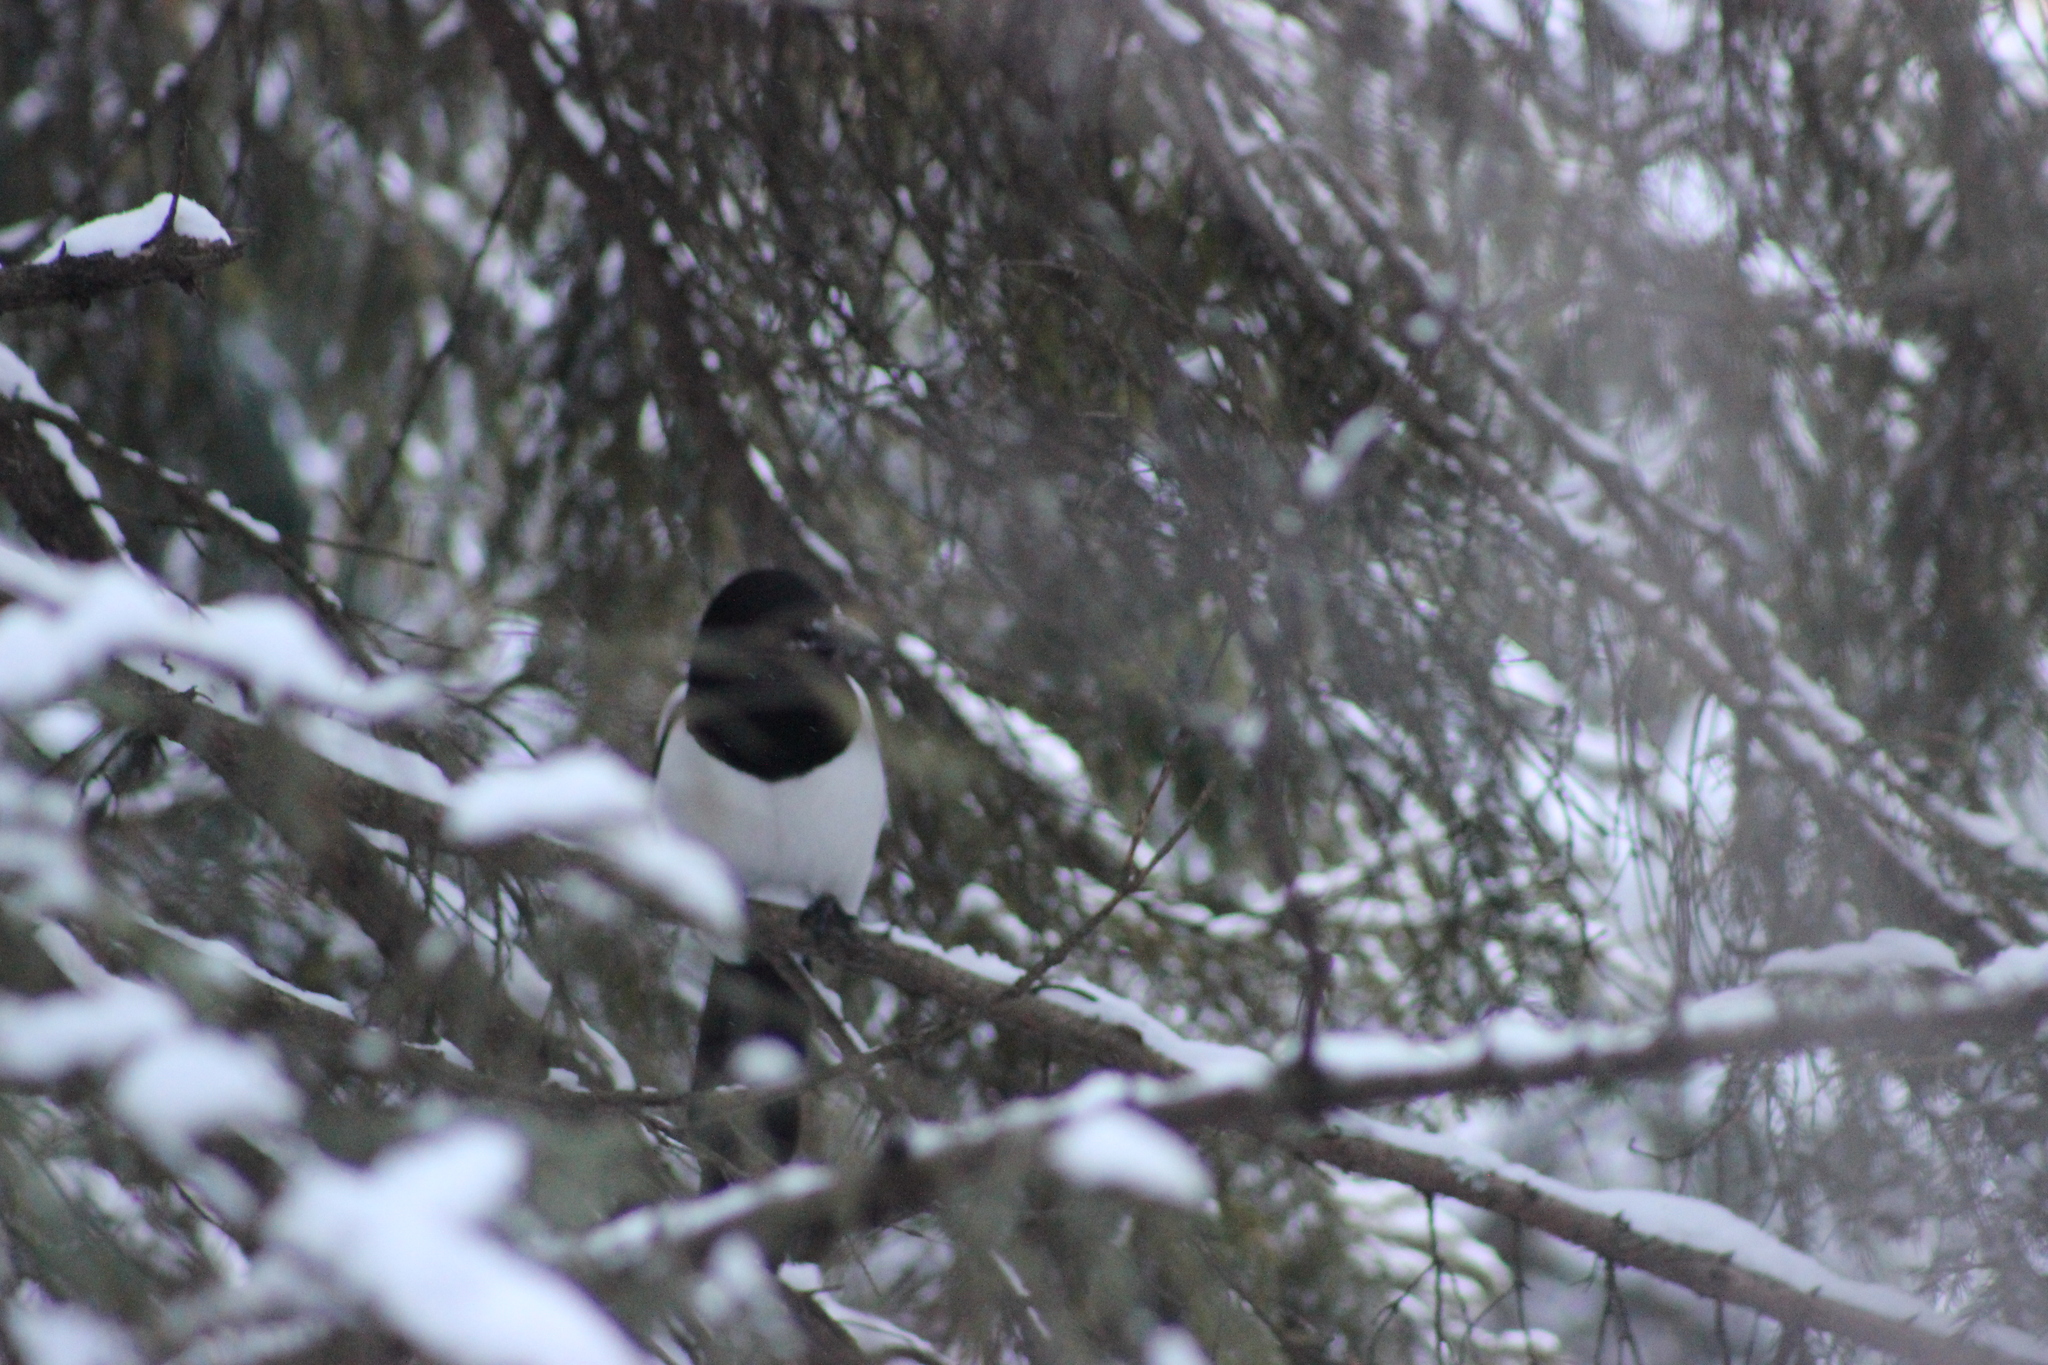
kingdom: Animalia
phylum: Chordata
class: Aves
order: Passeriformes
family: Corvidae
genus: Pica
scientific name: Pica pica
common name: Eurasian magpie
